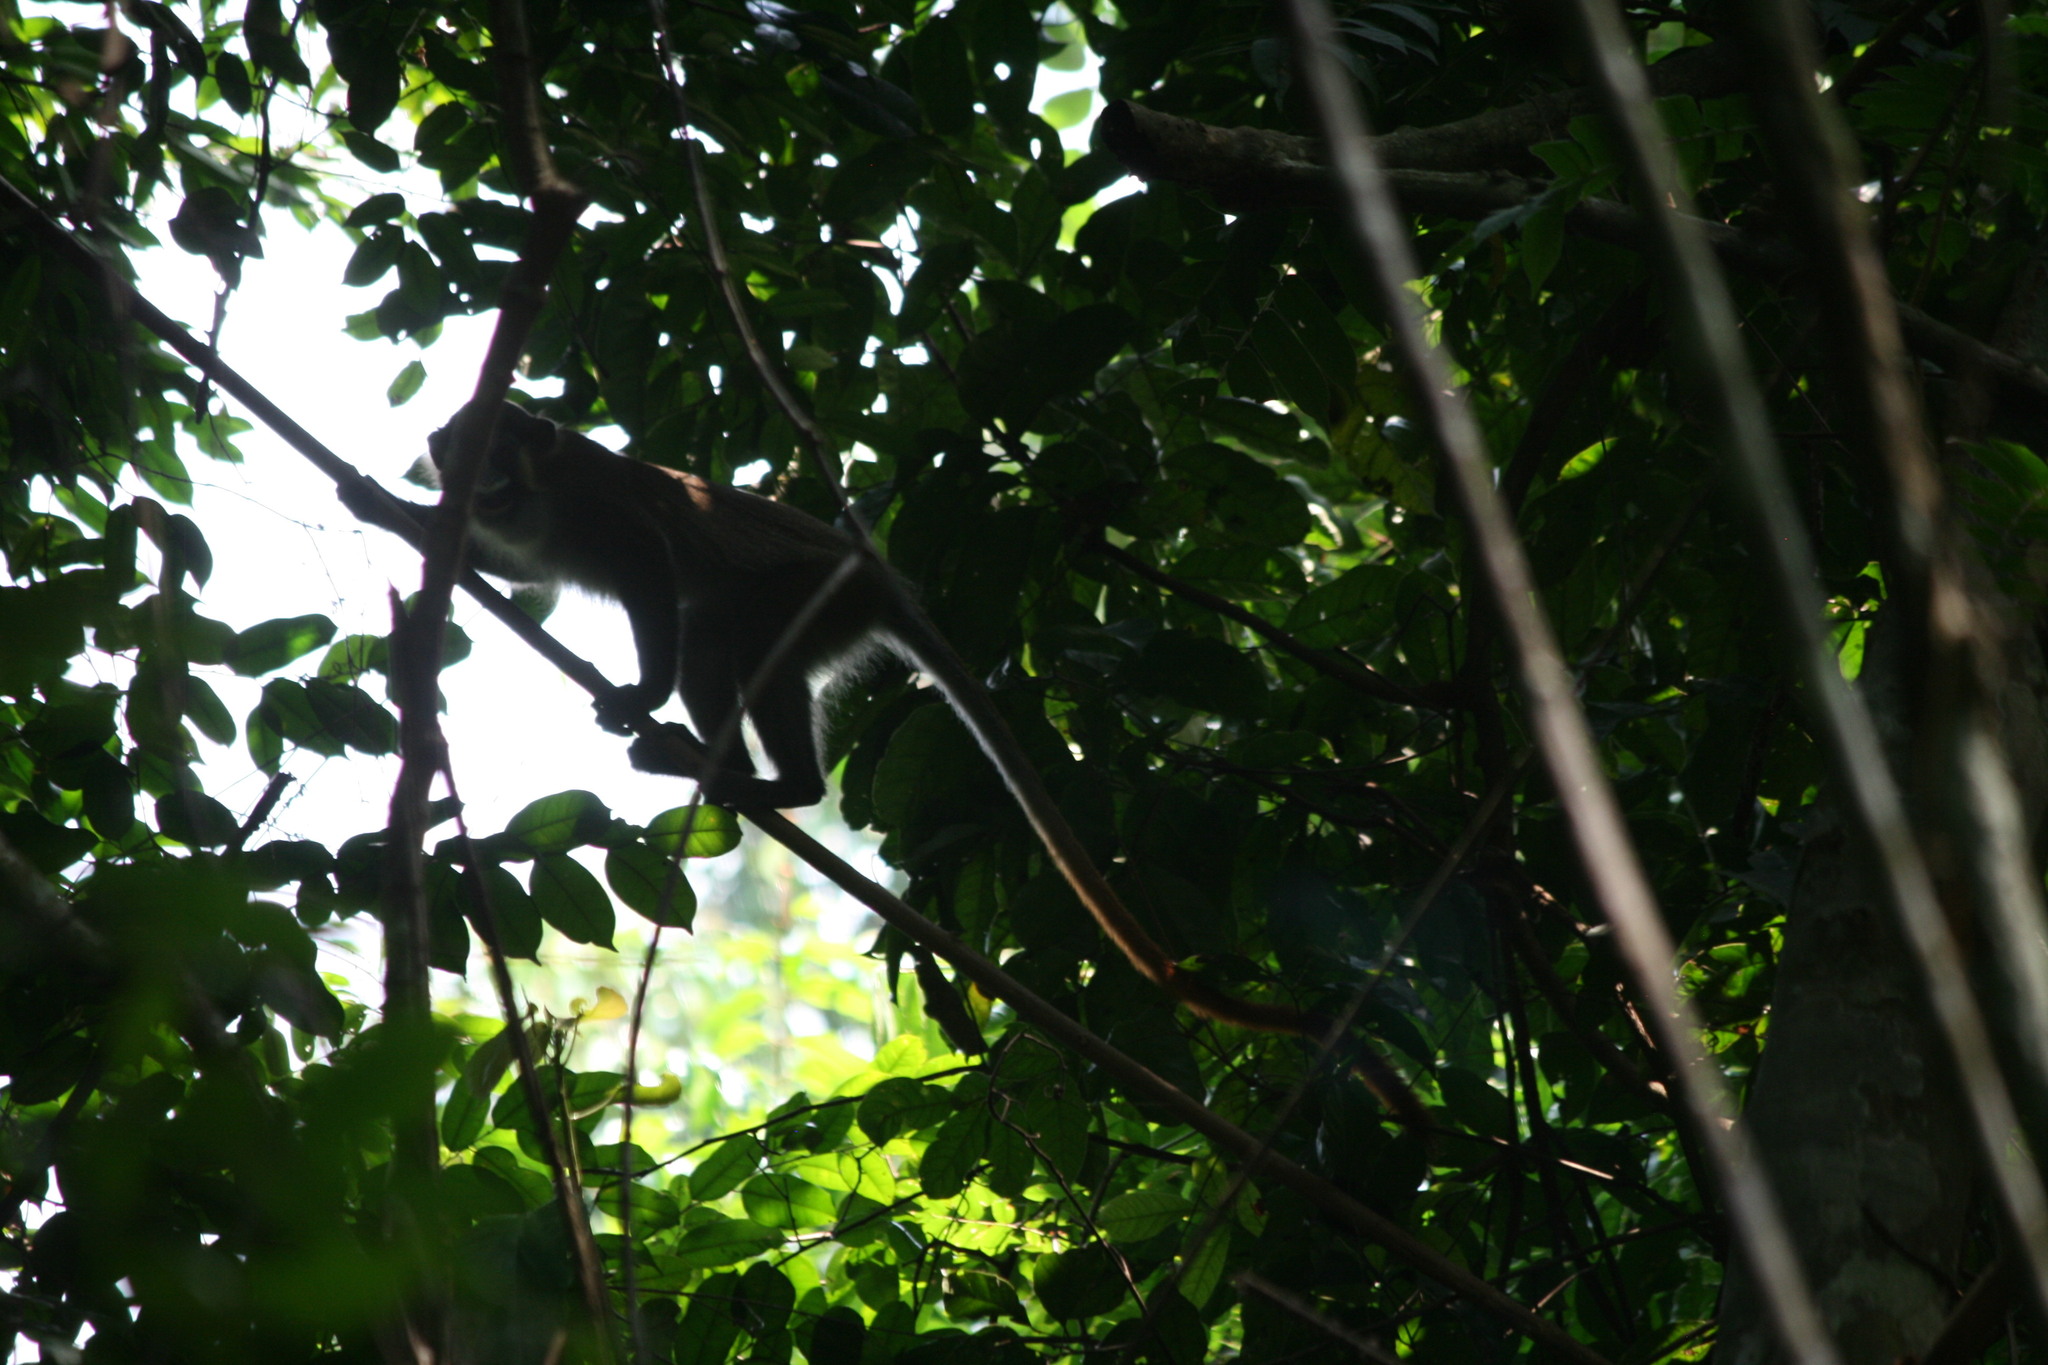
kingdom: Animalia
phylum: Chordata
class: Mammalia
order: Primates
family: Cercopithecidae
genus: Cercopithecus
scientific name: Cercopithecus cephus
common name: Moustached guenon
